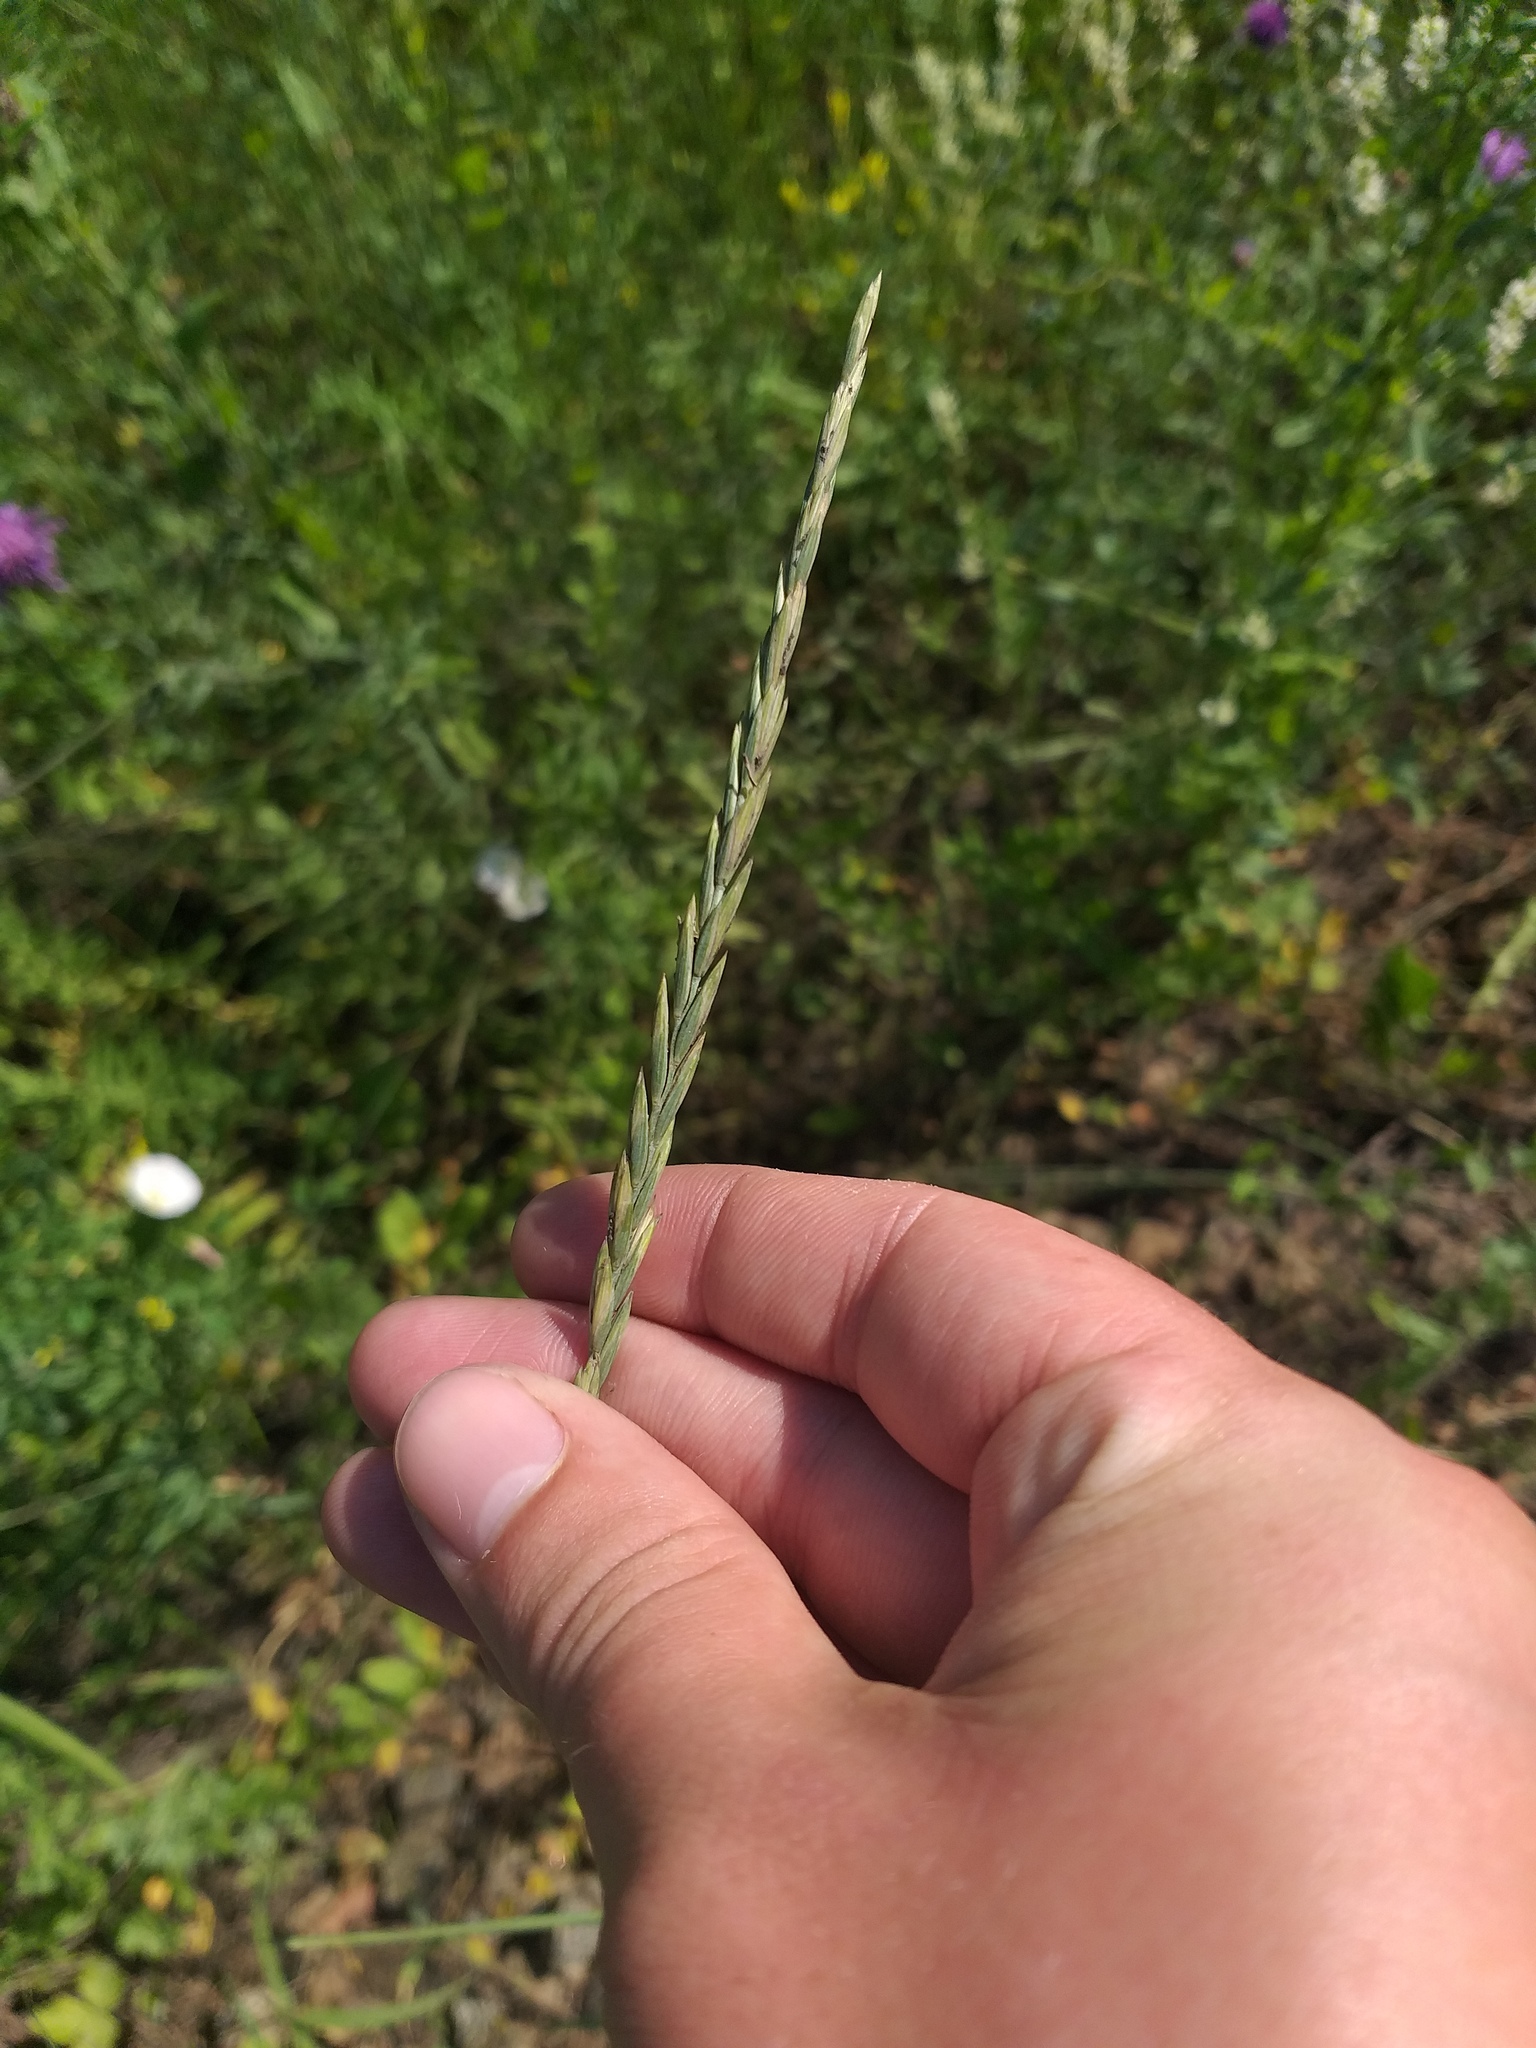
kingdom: Plantae
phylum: Tracheophyta
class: Liliopsida
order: Poales
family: Poaceae
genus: Elymus
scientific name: Elymus repens
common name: Quackgrass
